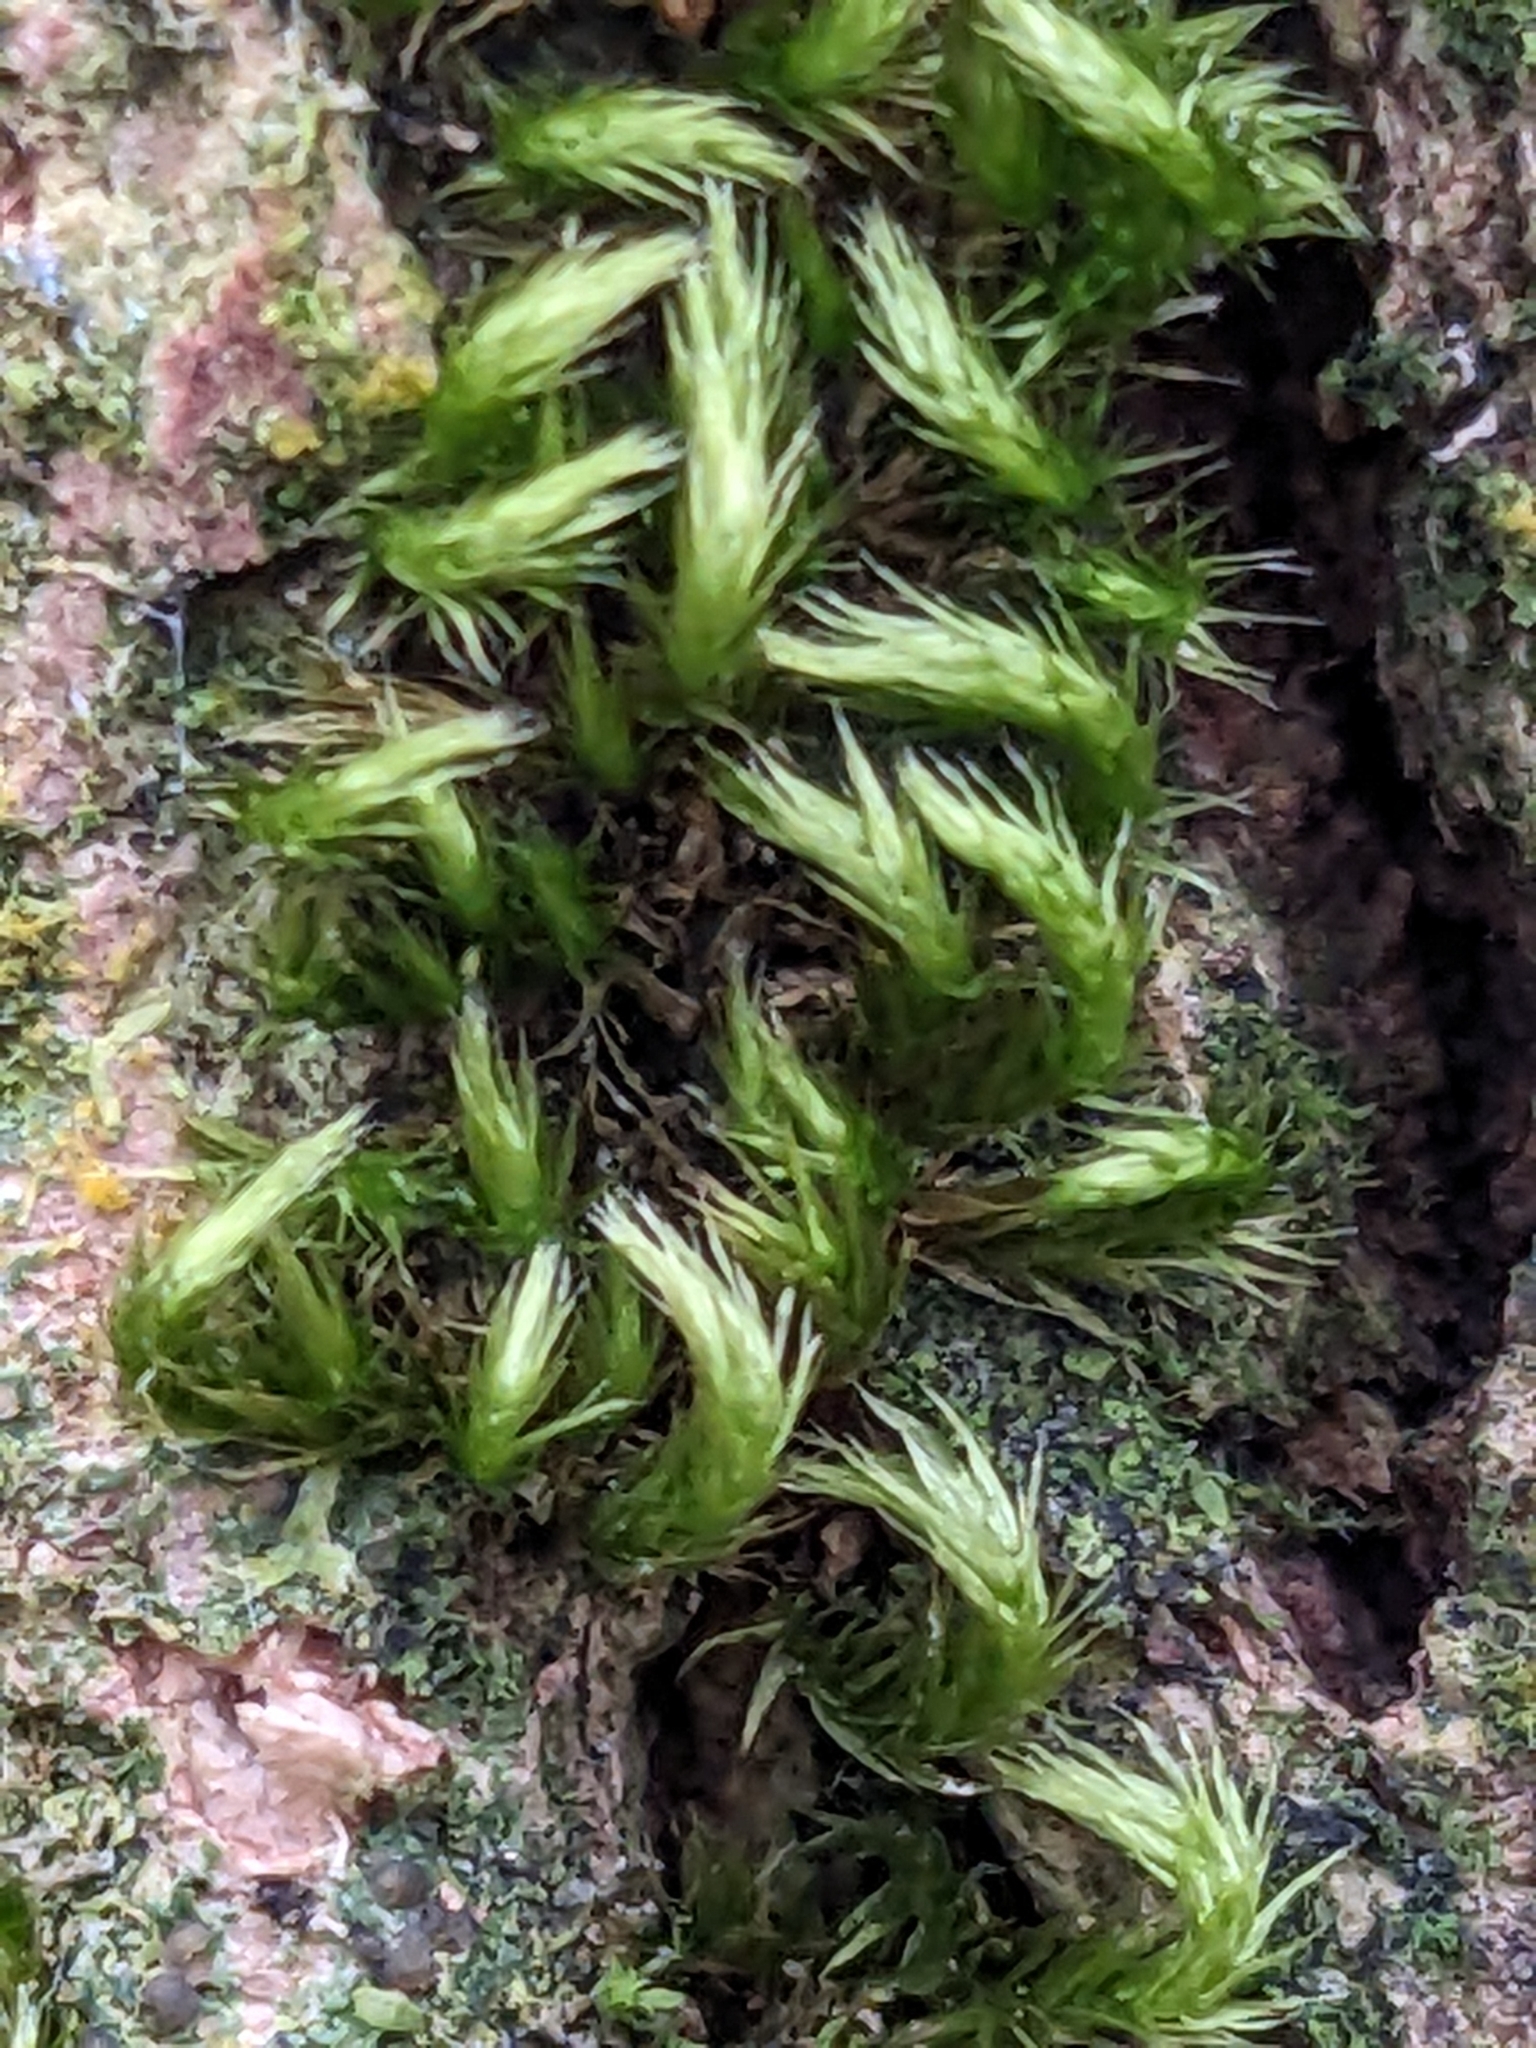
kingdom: Plantae
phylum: Bryophyta
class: Bryopsida
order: Hypnales
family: Brachytheciaceae
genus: Homalothecium
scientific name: Homalothecium sericeum
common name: Silky wall feather-moss
